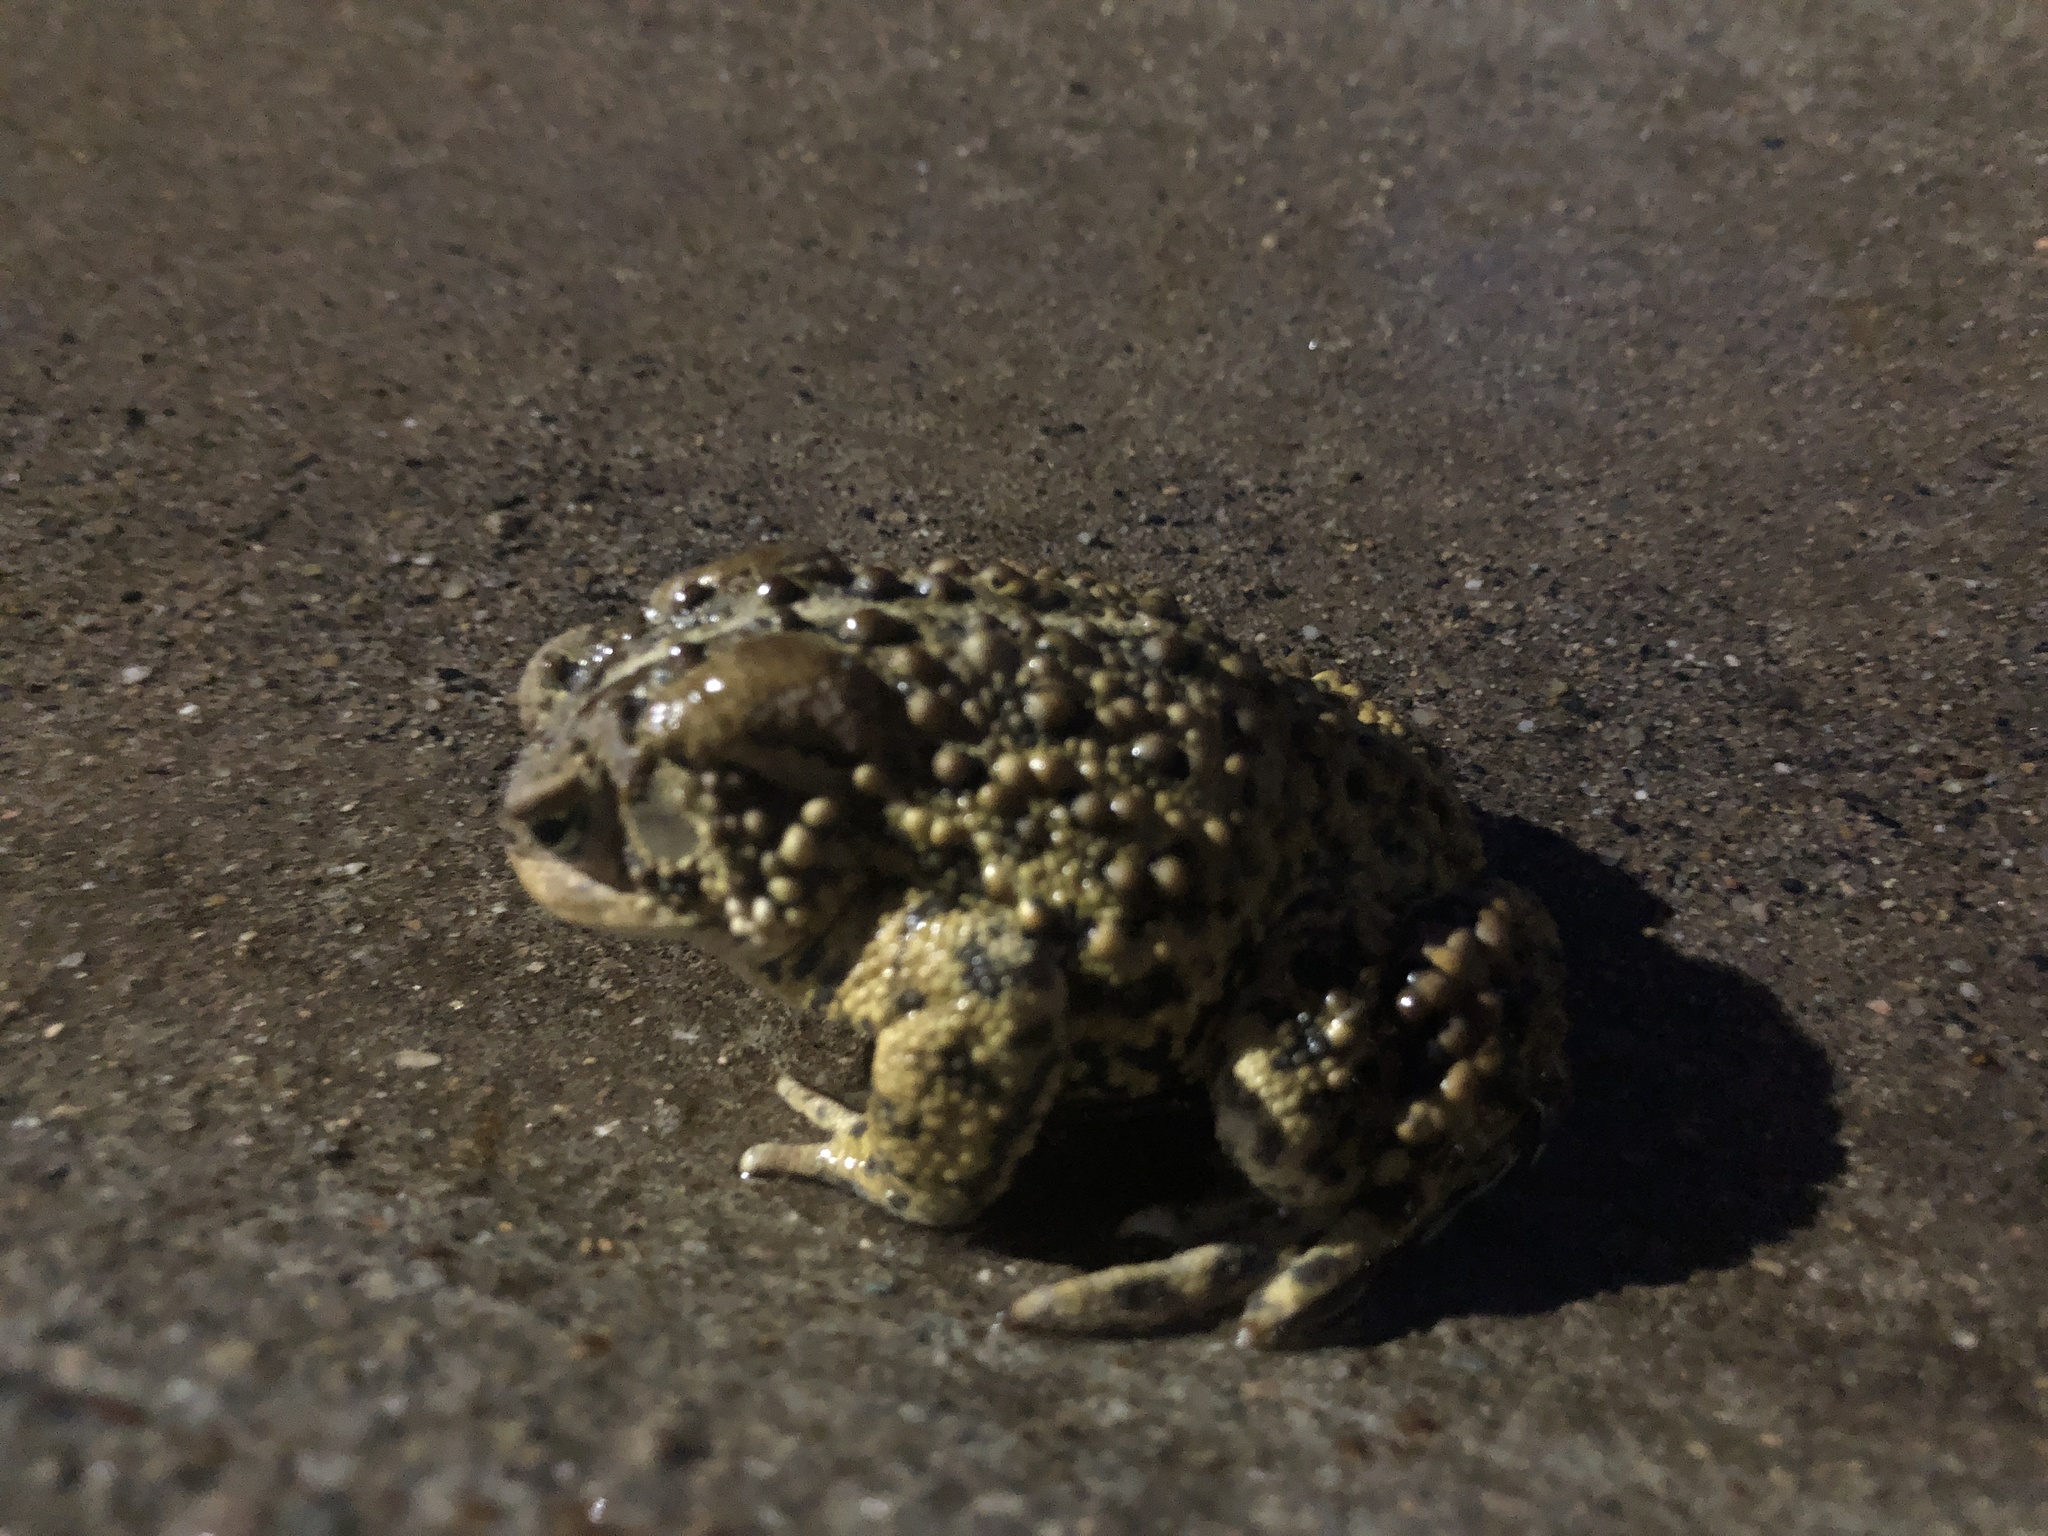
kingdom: Animalia
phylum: Chordata
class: Amphibia
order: Anura
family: Bufonidae
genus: Anaxyrus
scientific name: Anaxyrus americanus
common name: American toad
